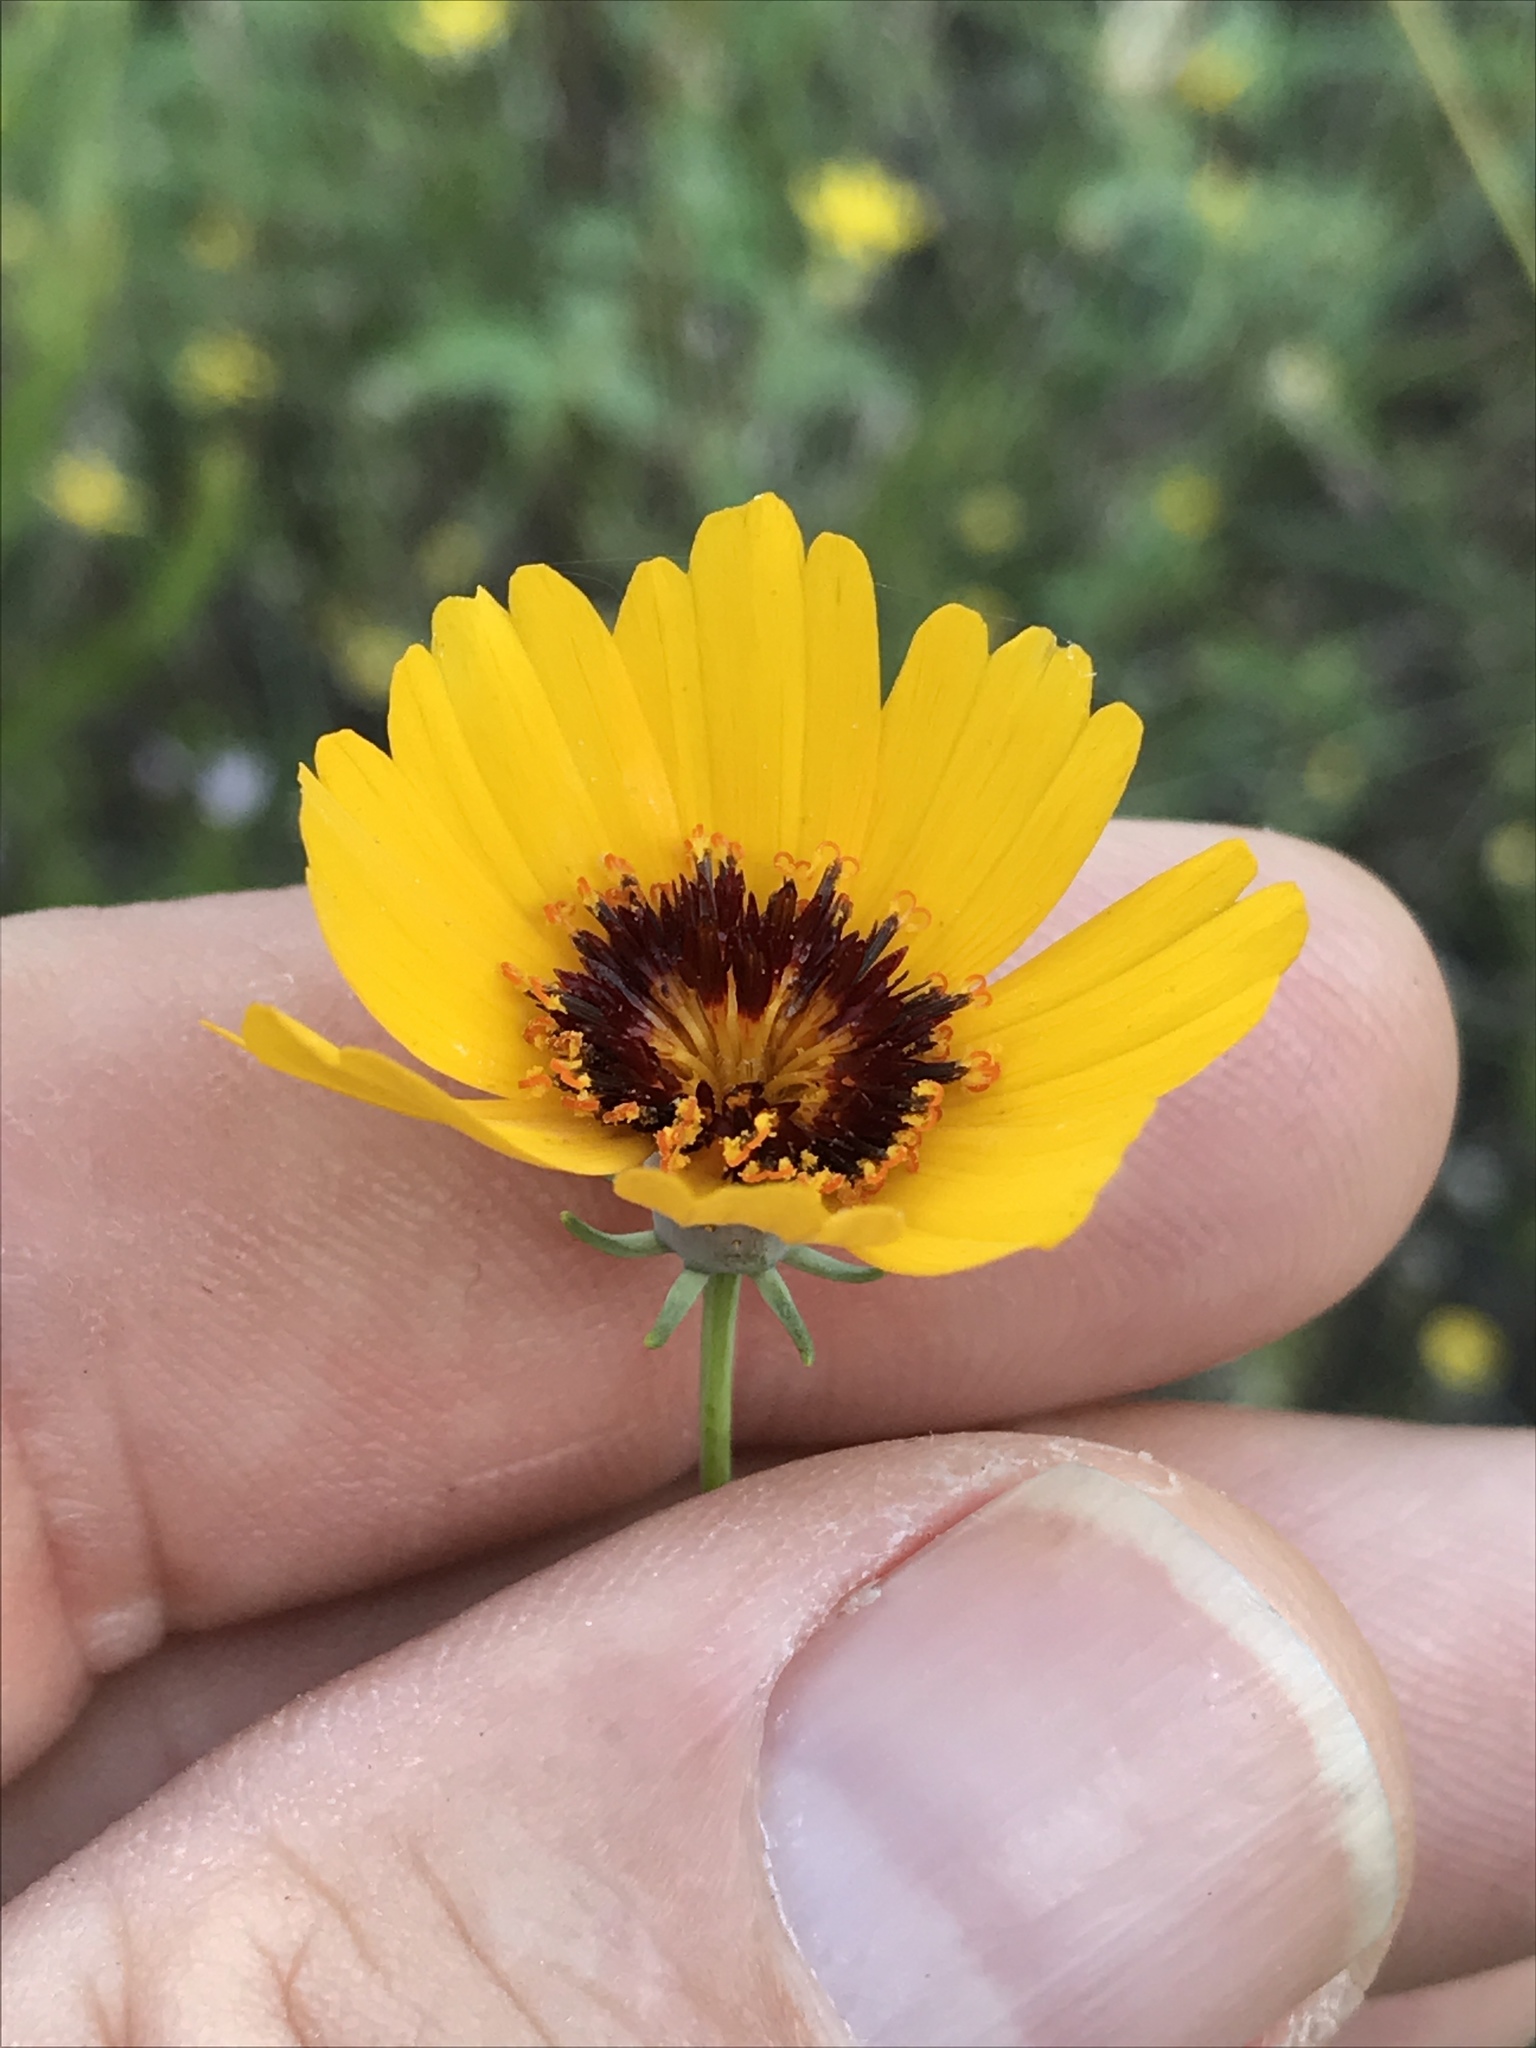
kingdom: Plantae
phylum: Tracheophyta
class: Magnoliopsida
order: Asterales
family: Asteraceae
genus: Thelesperma
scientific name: Thelesperma filifolium
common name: Stiff greenthread
